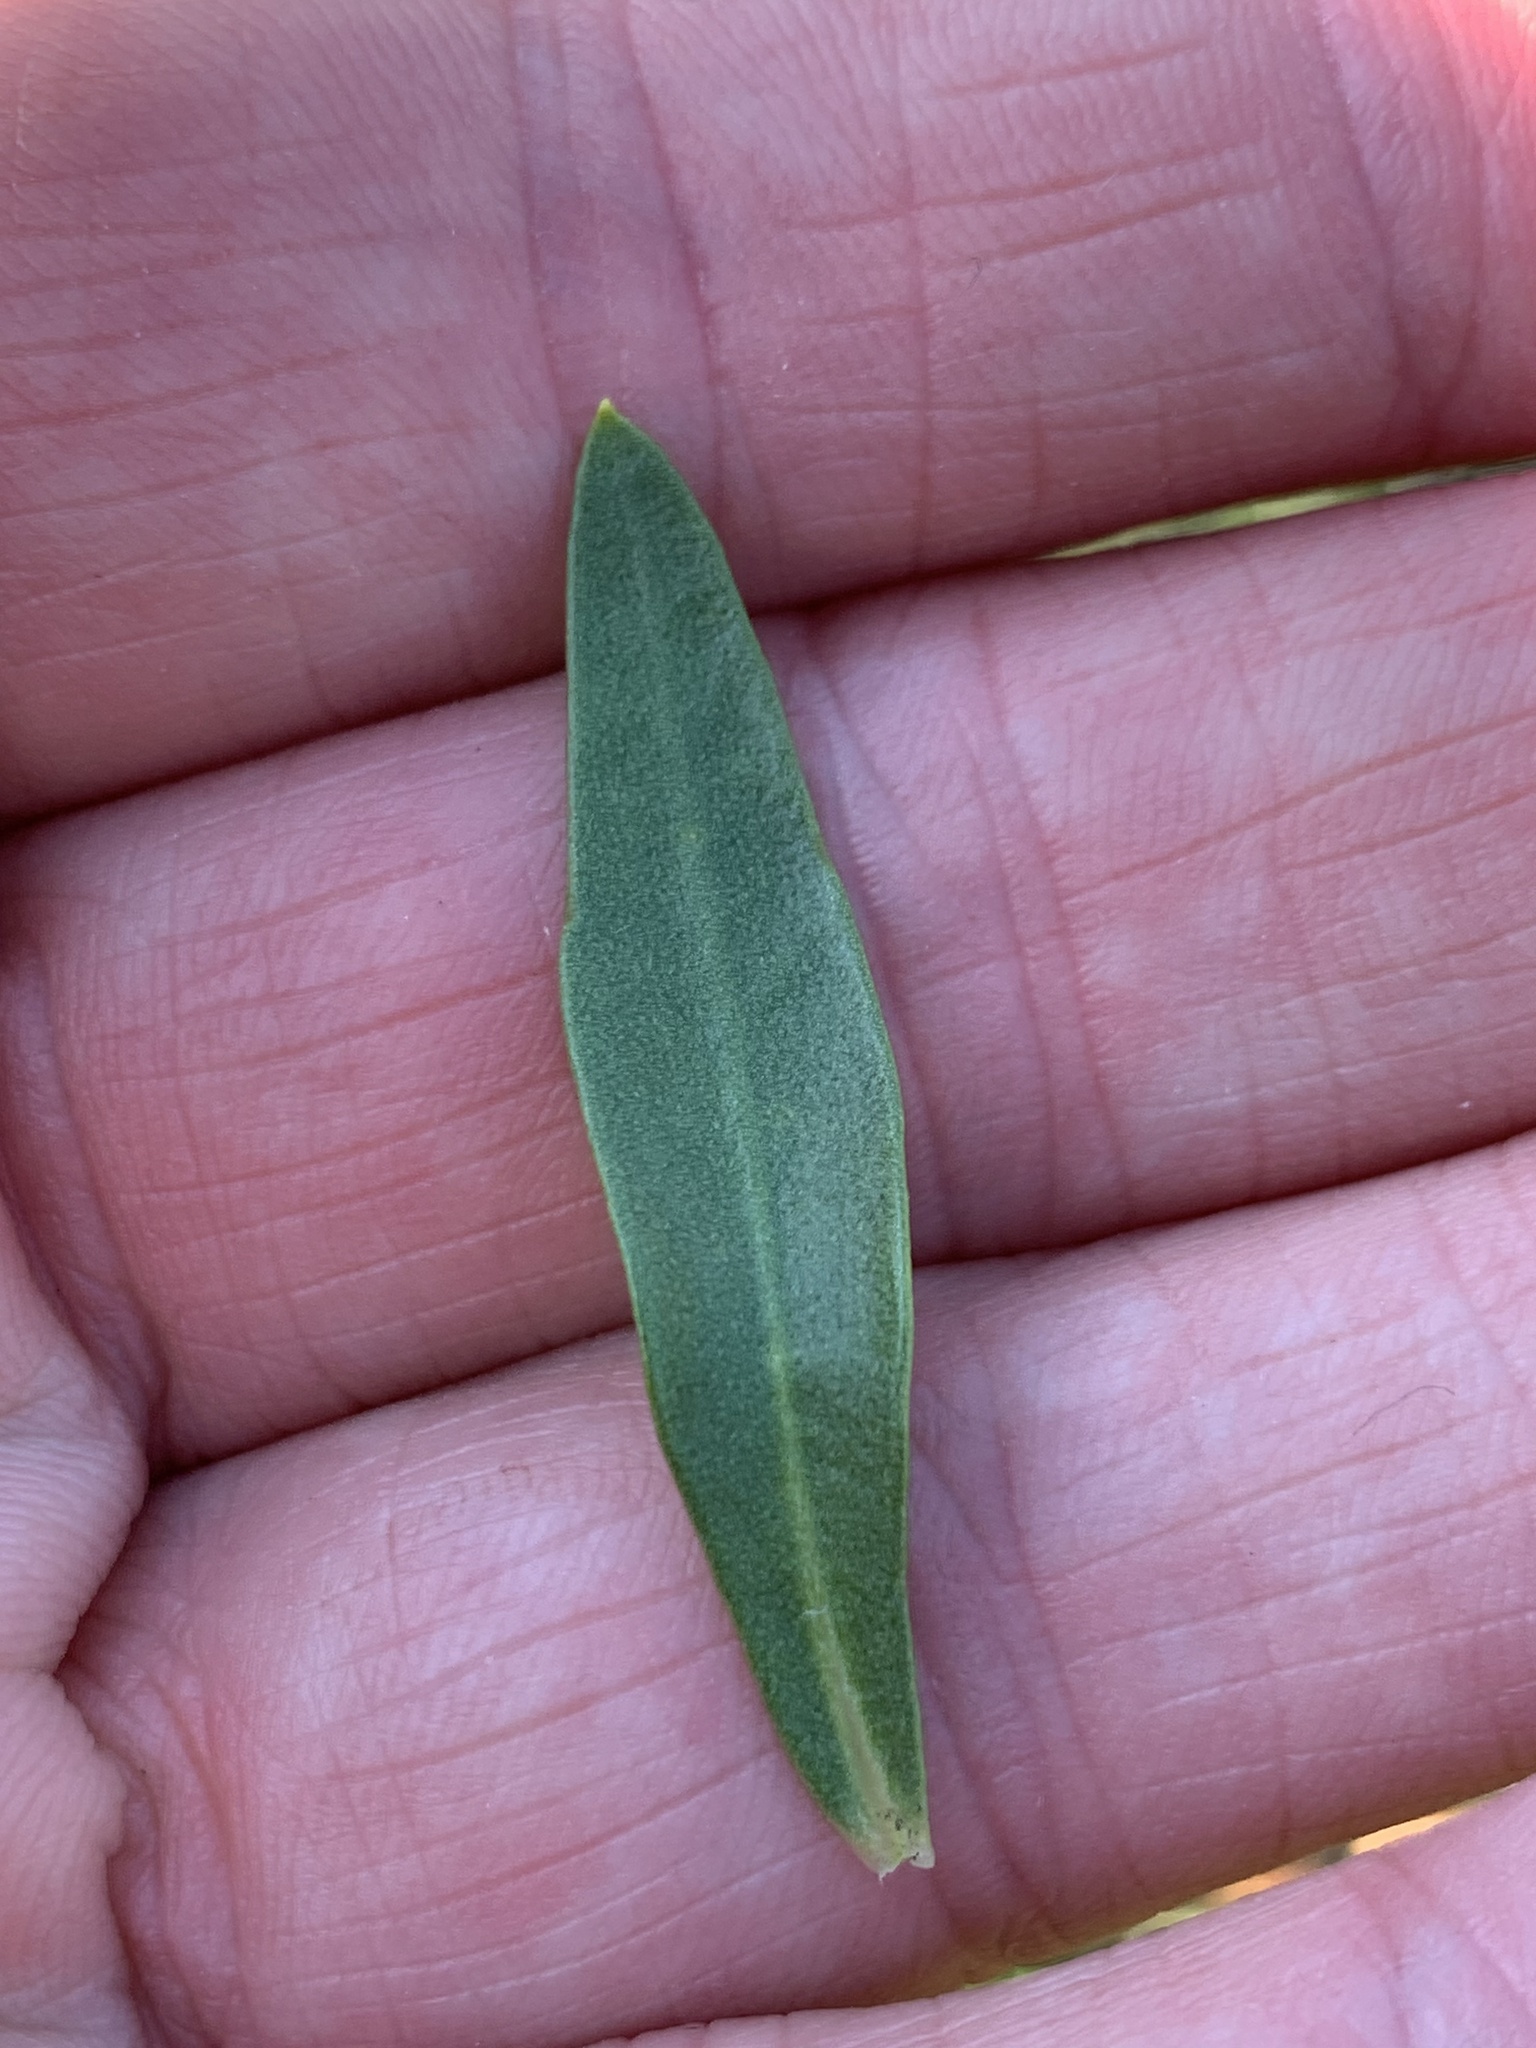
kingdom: Plantae
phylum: Tracheophyta
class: Magnoliopsida
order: Fabales
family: Polygalaceae
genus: Polygala
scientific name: Polygala rugelii
